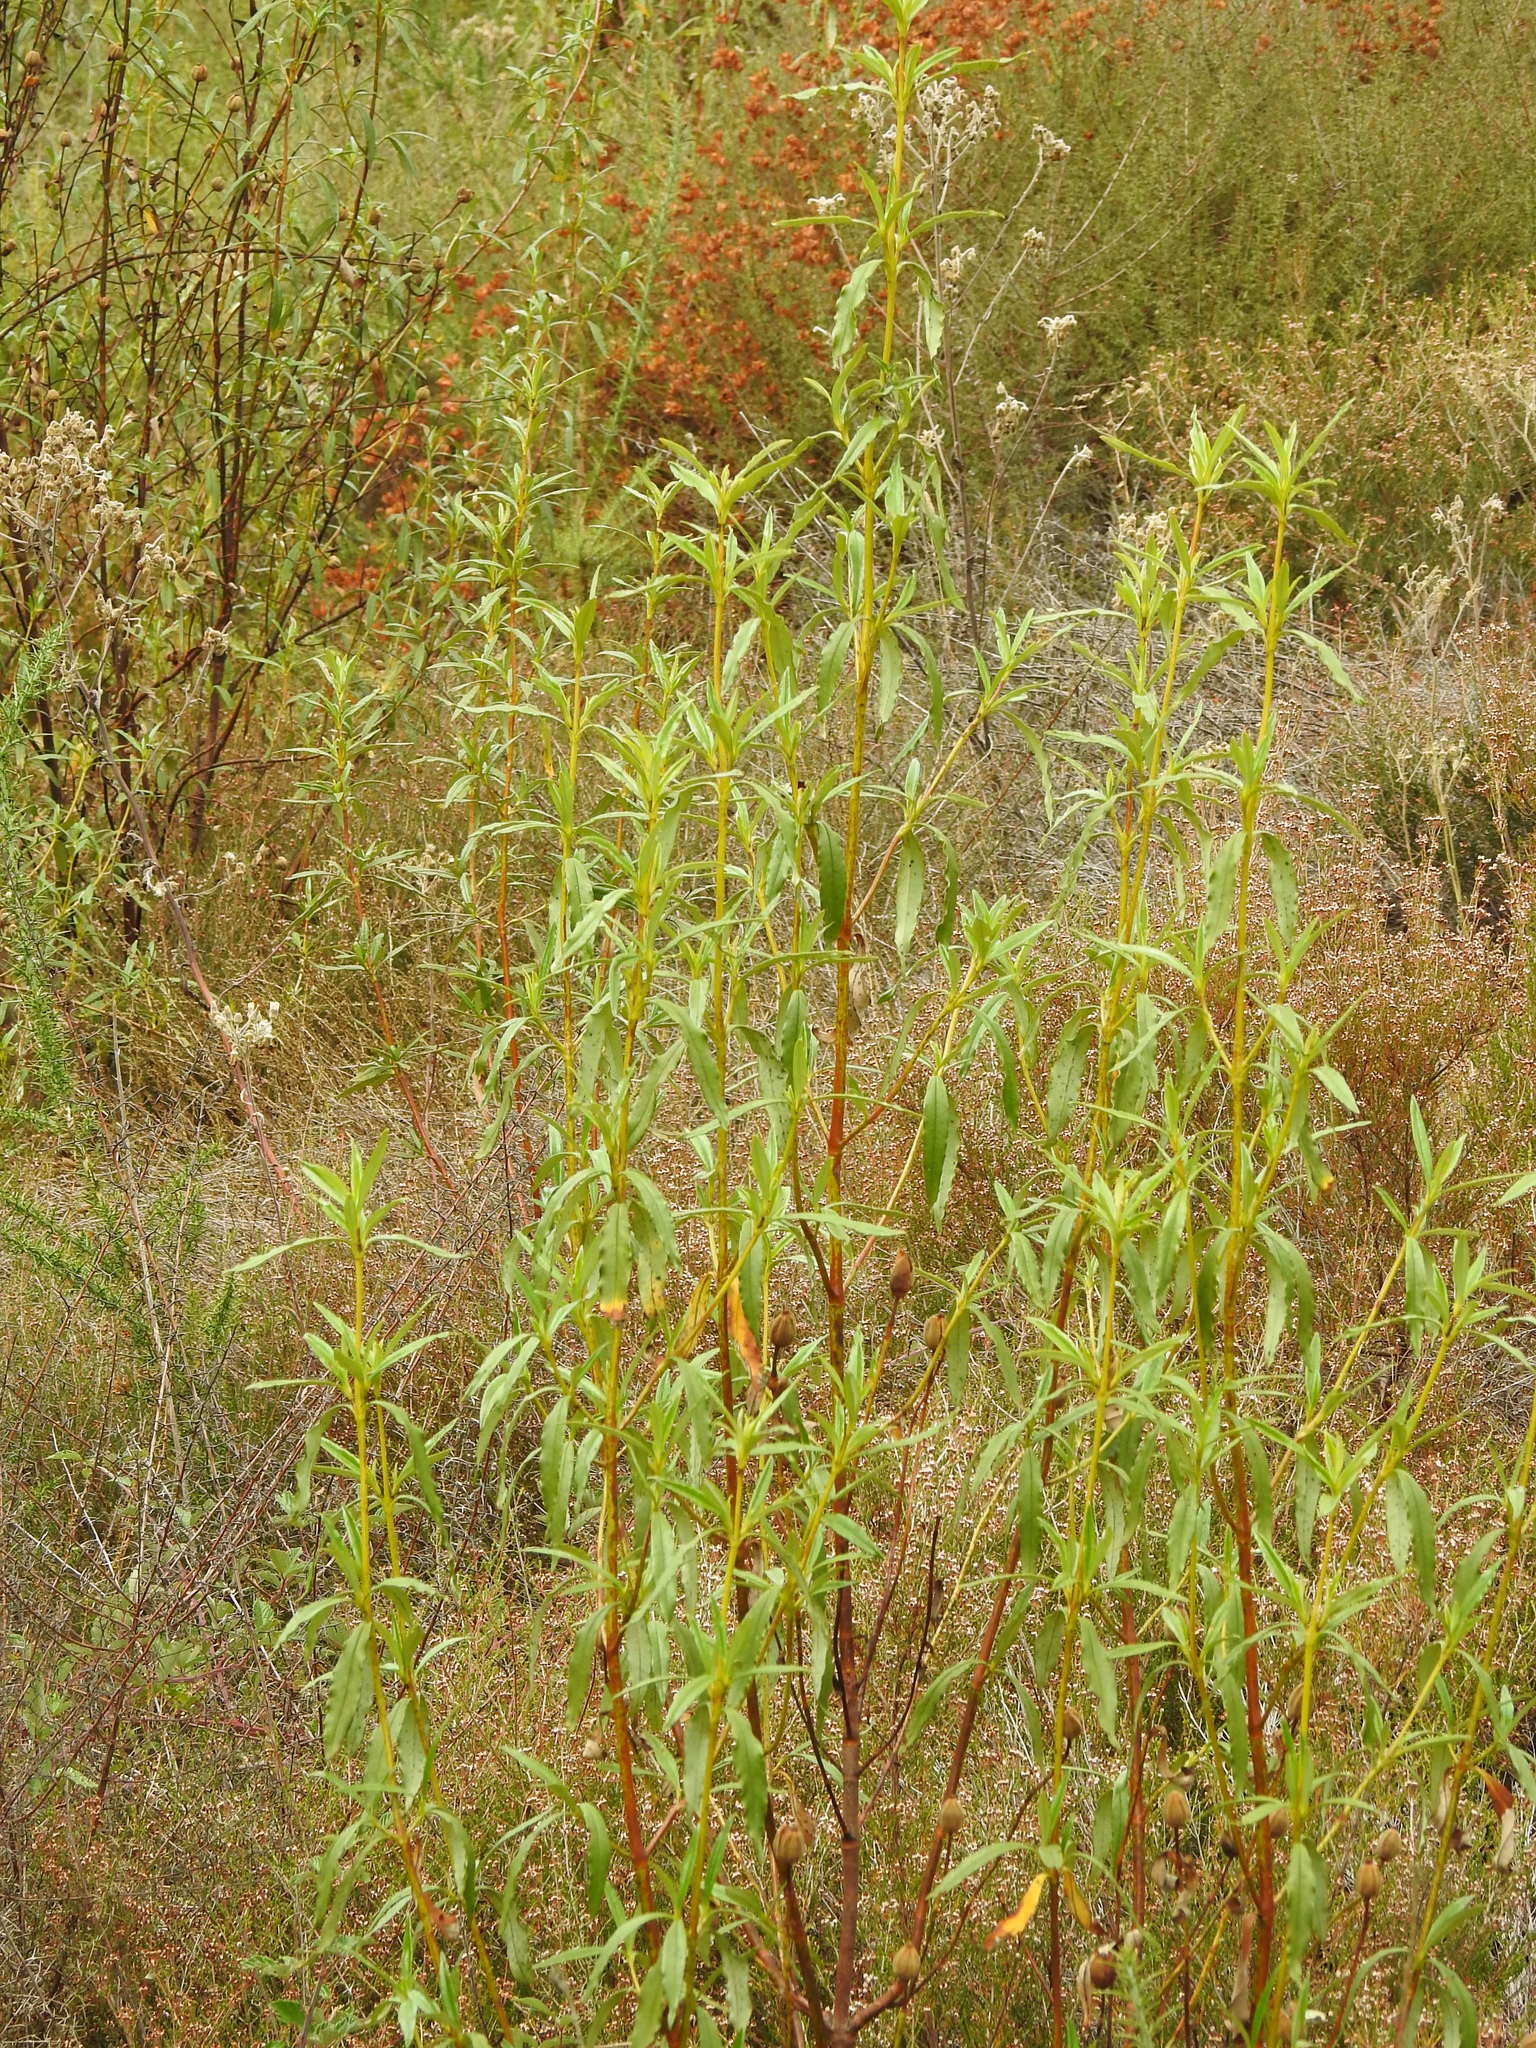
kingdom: Plantae
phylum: Tracheophyta
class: Magnoliopsida
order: Malvales
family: Cistaceae
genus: Cistus
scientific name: Cistus ladanifer
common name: Common gum cistus
